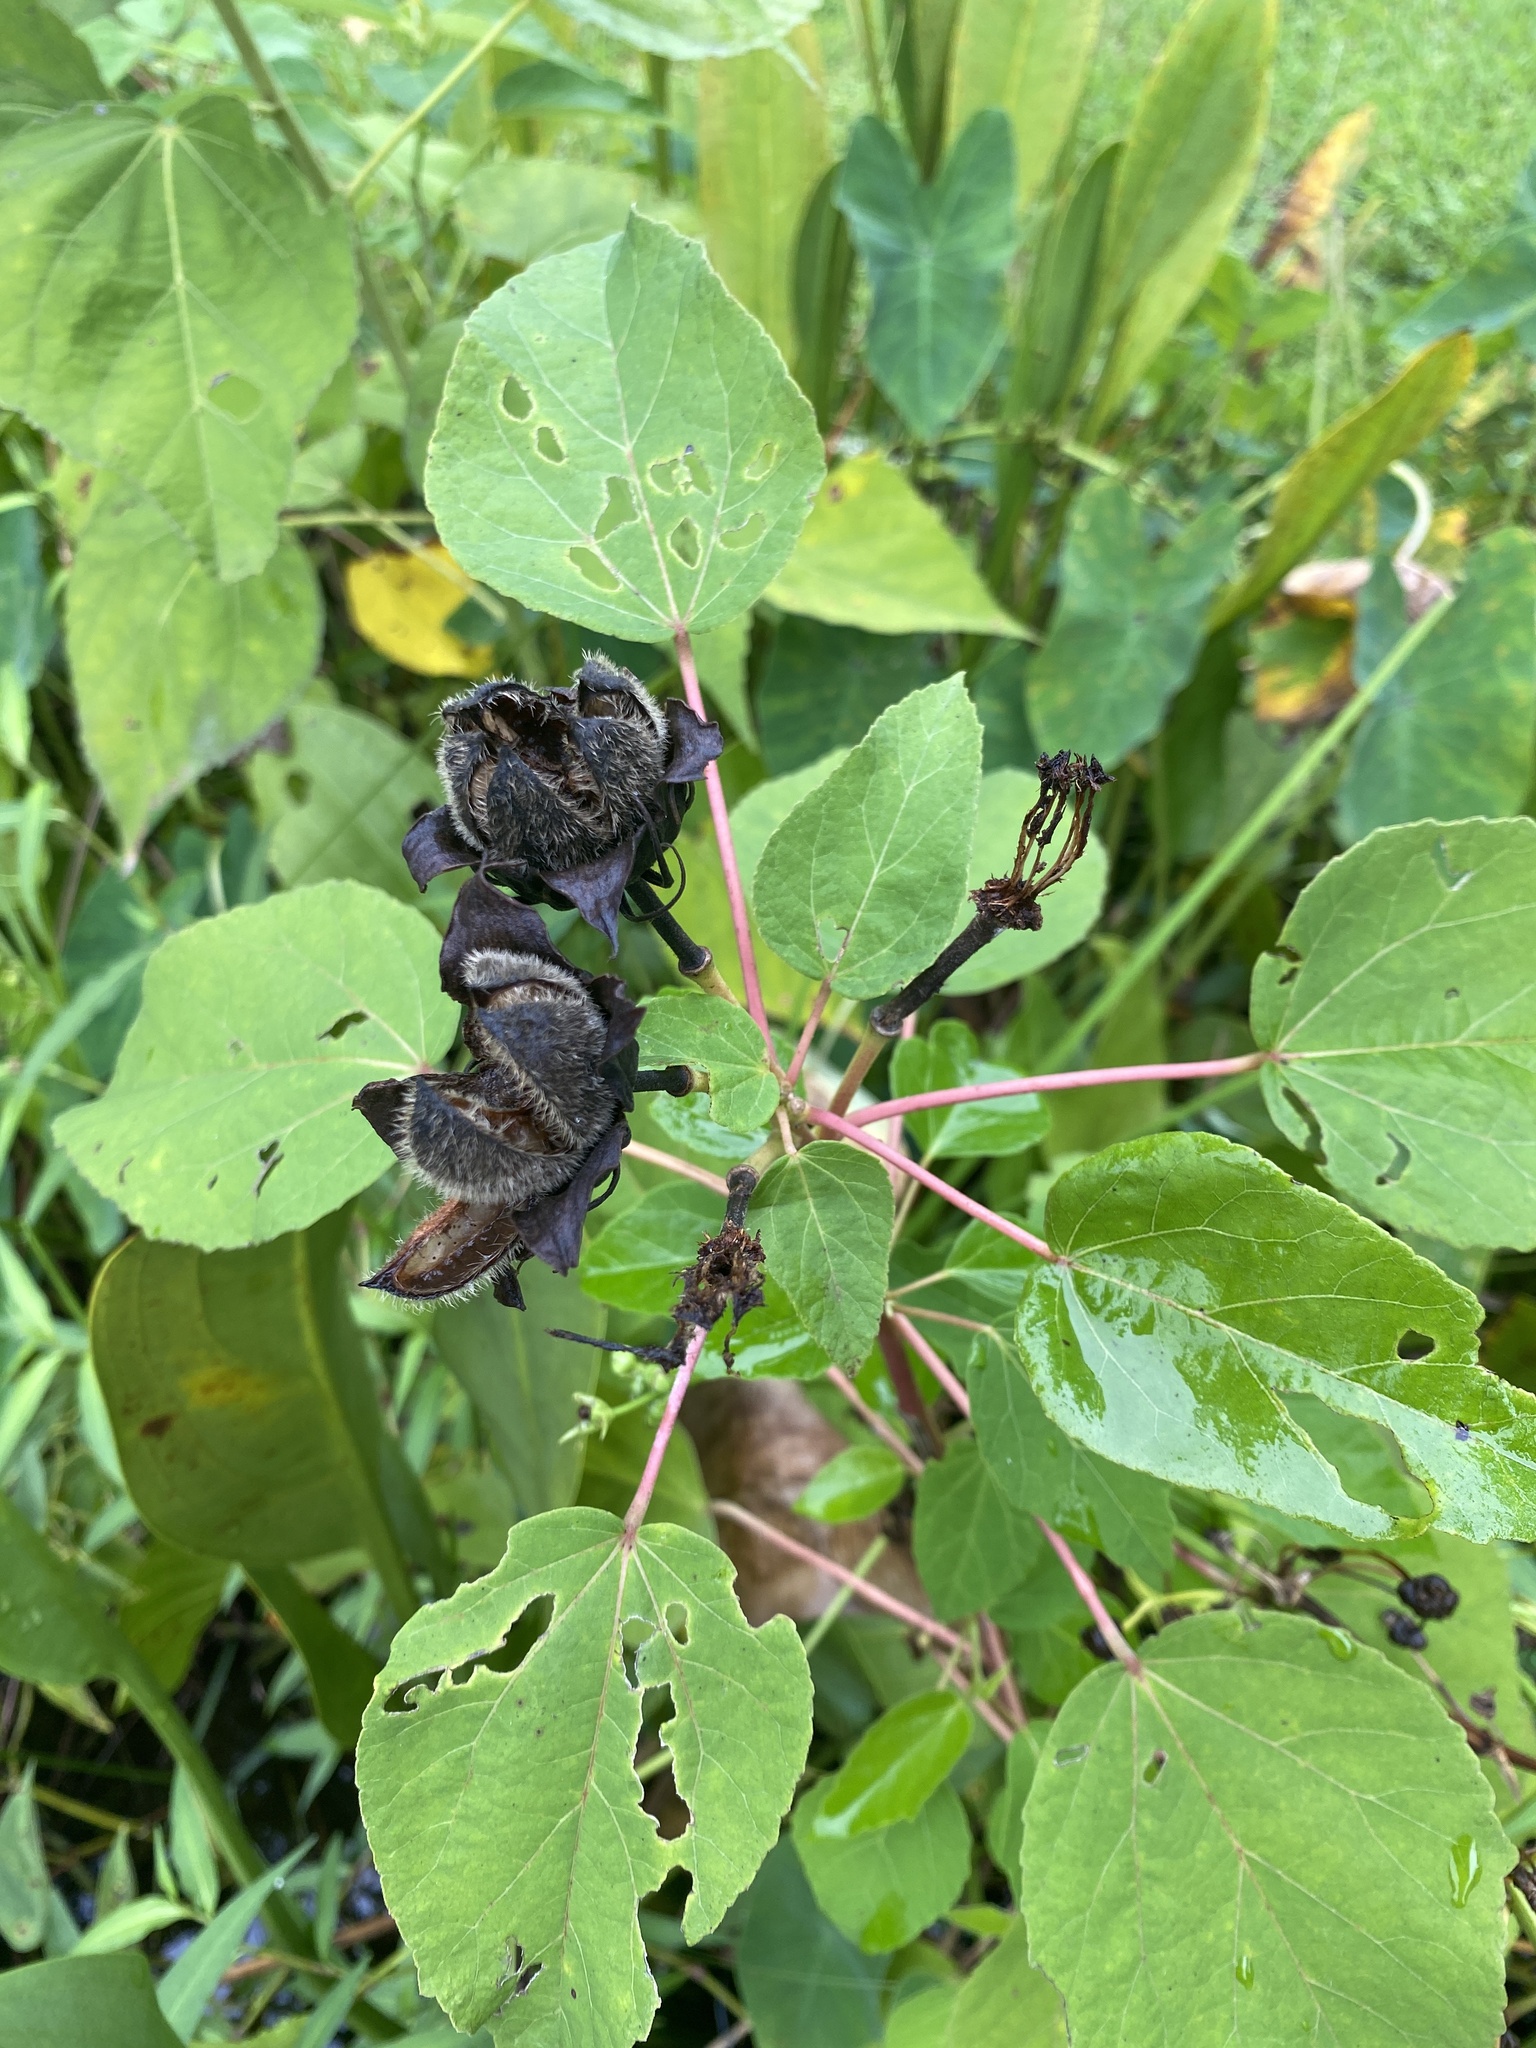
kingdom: Plantae
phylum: Tracheophyta
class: Magnoliopsida
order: Malvales
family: Malvaceae
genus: Hibiscus
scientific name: Hibiscus moscheutos
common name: Common rose-mallow
